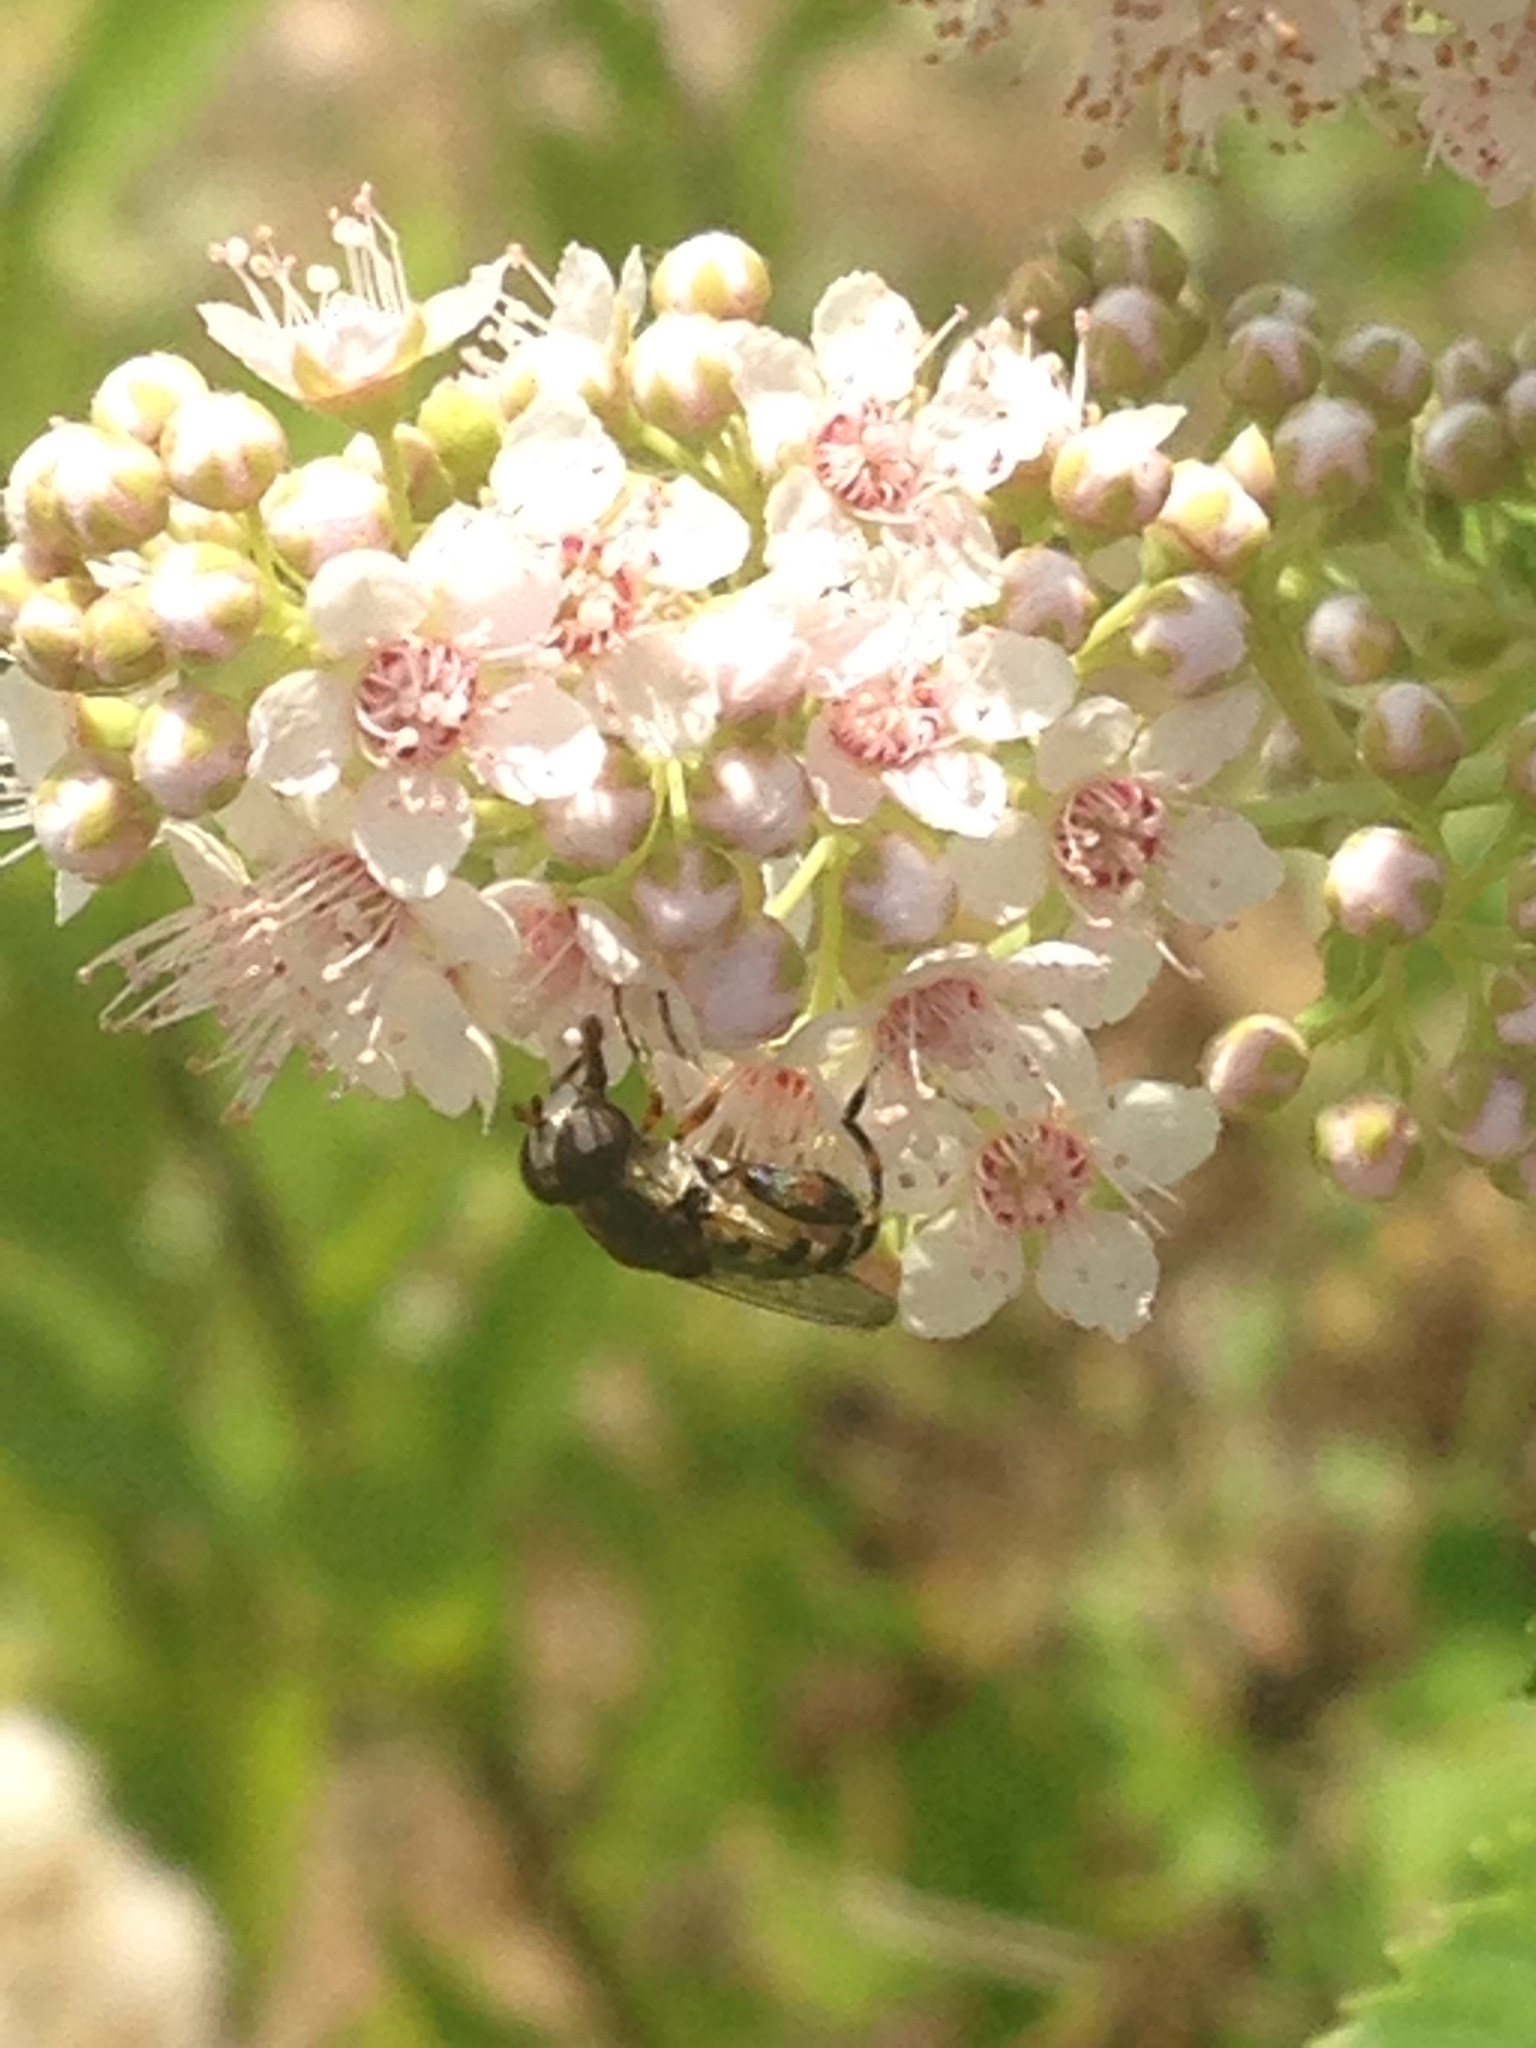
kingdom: Animalia
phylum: Arthropoda
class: Insecta
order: Diptera
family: Syrphidae
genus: Syritta
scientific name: Syritta pipiens
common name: Hover fly
